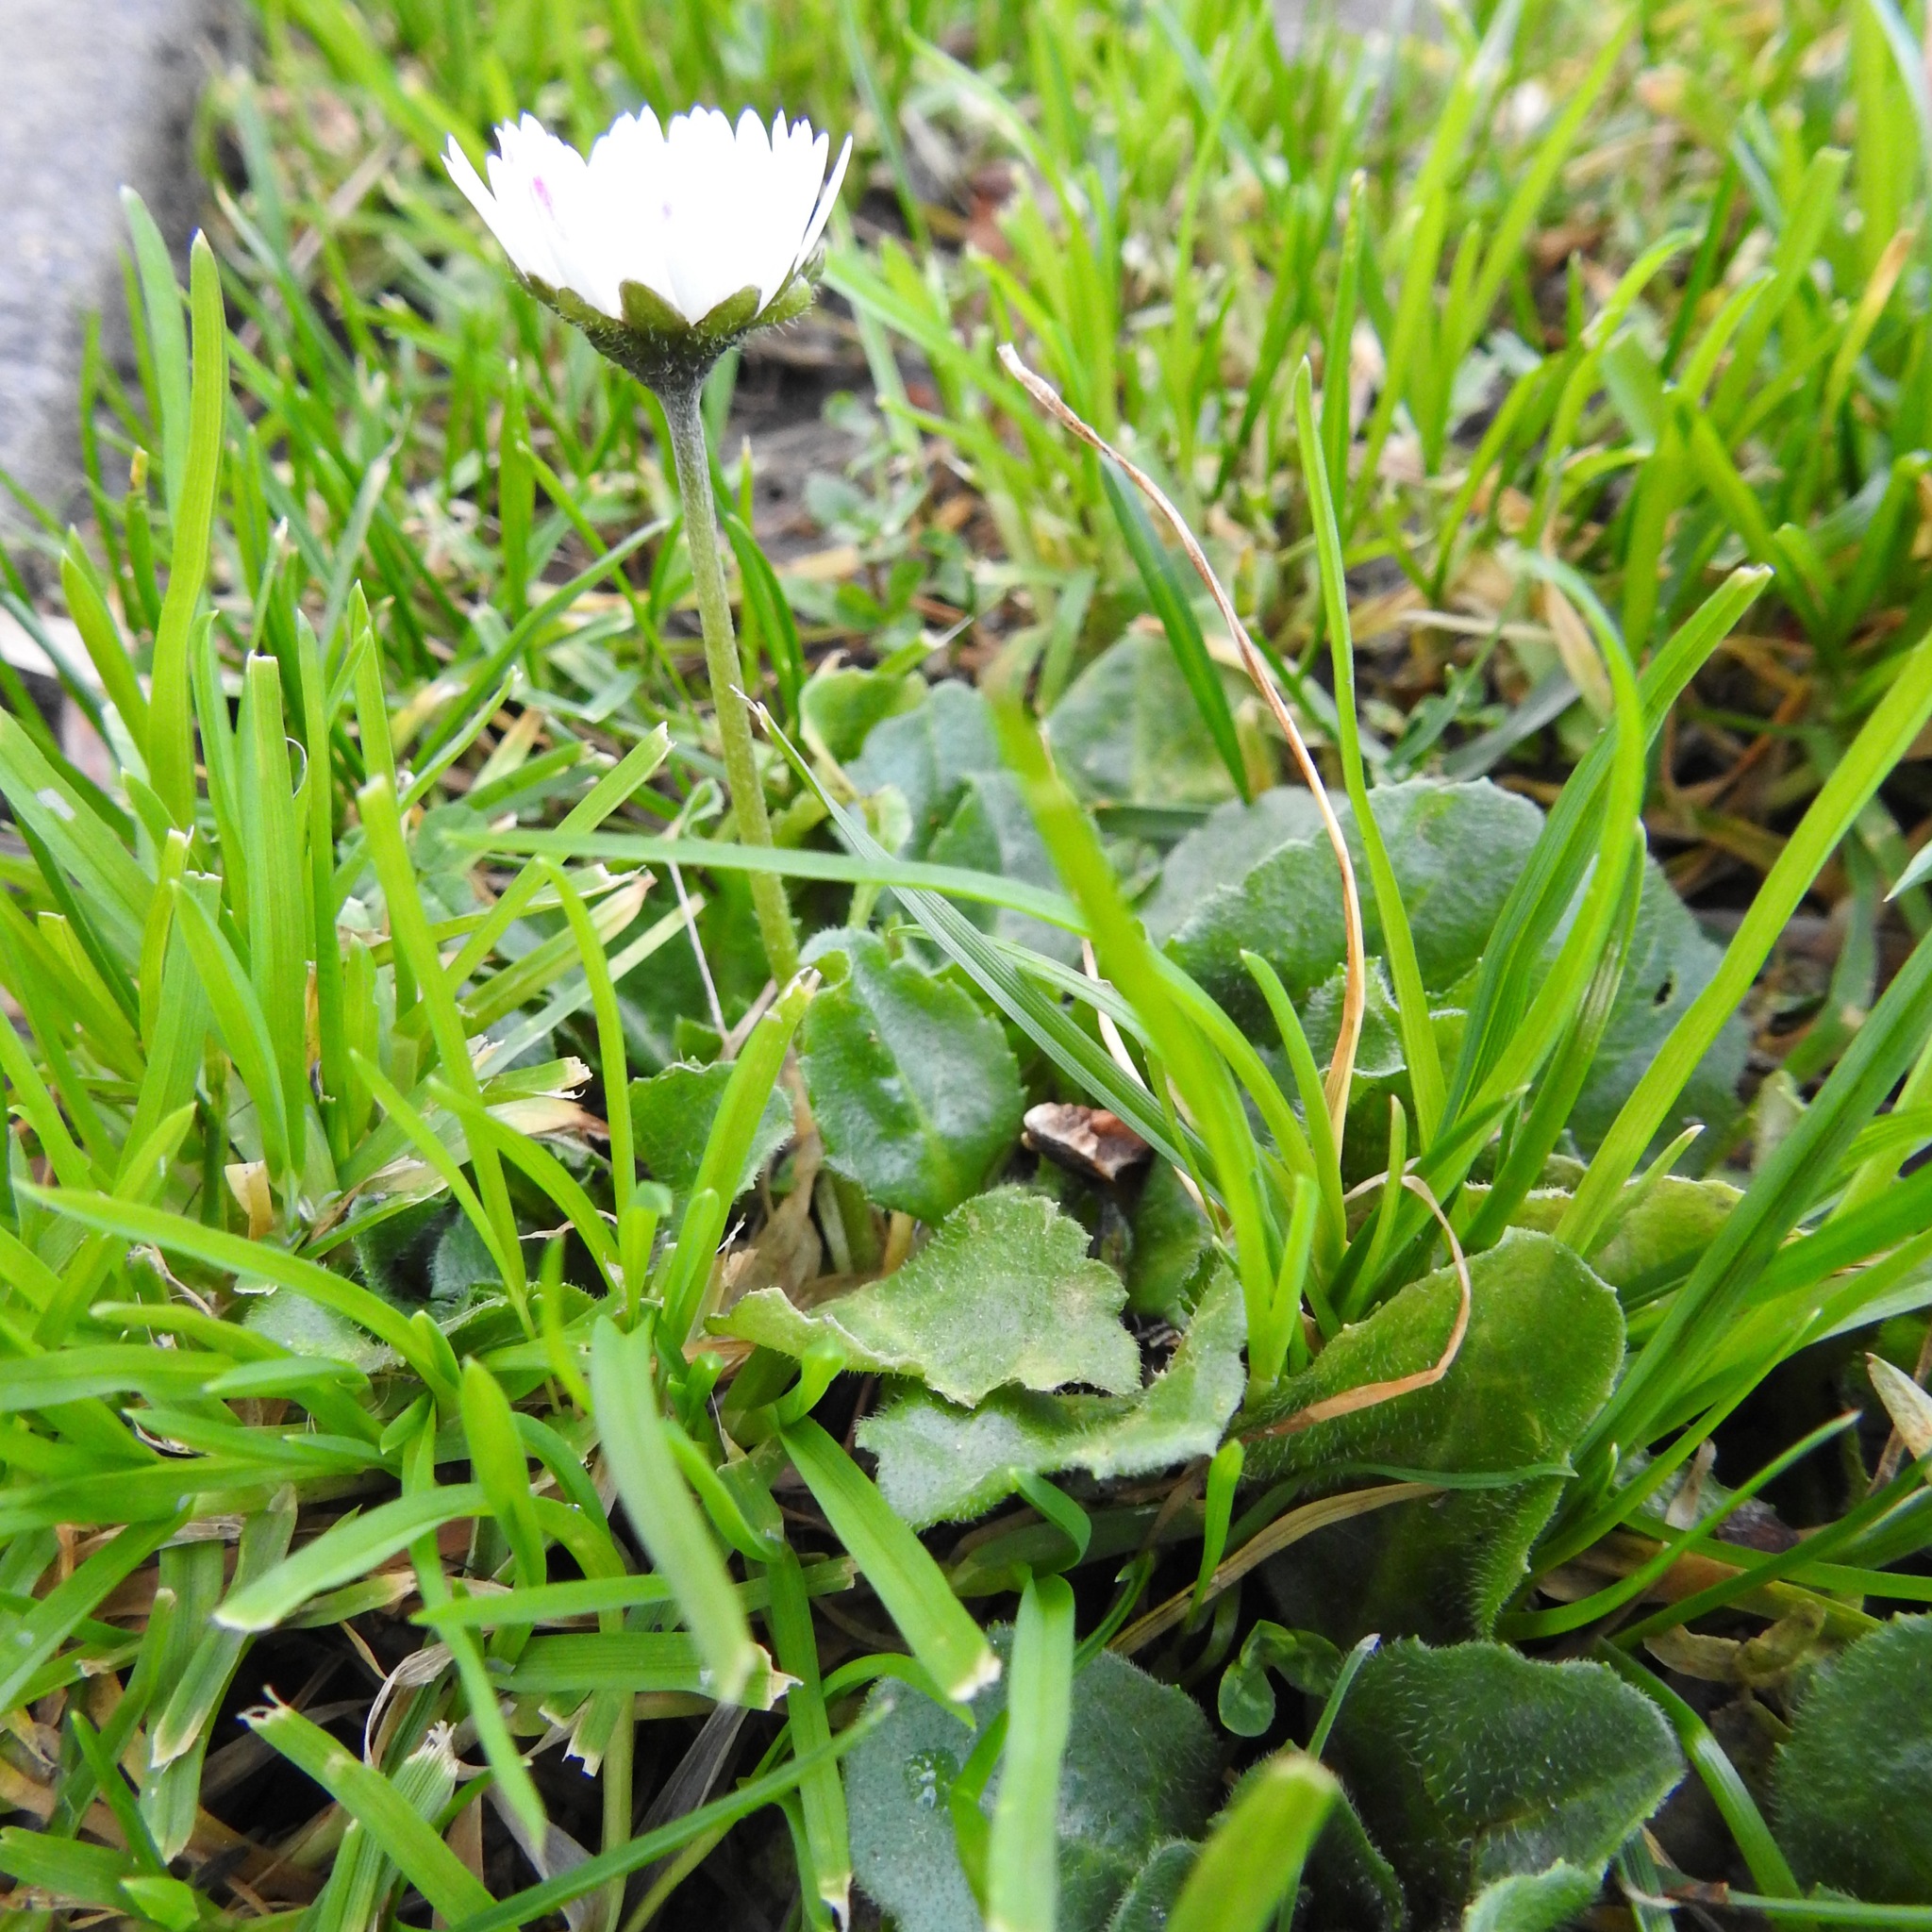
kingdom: Plantae
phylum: Tracheophyta
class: Magnoliopsida
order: Asterales
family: Asteraceae
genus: Bellis
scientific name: Bellis perennis
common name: Lawndaisy
